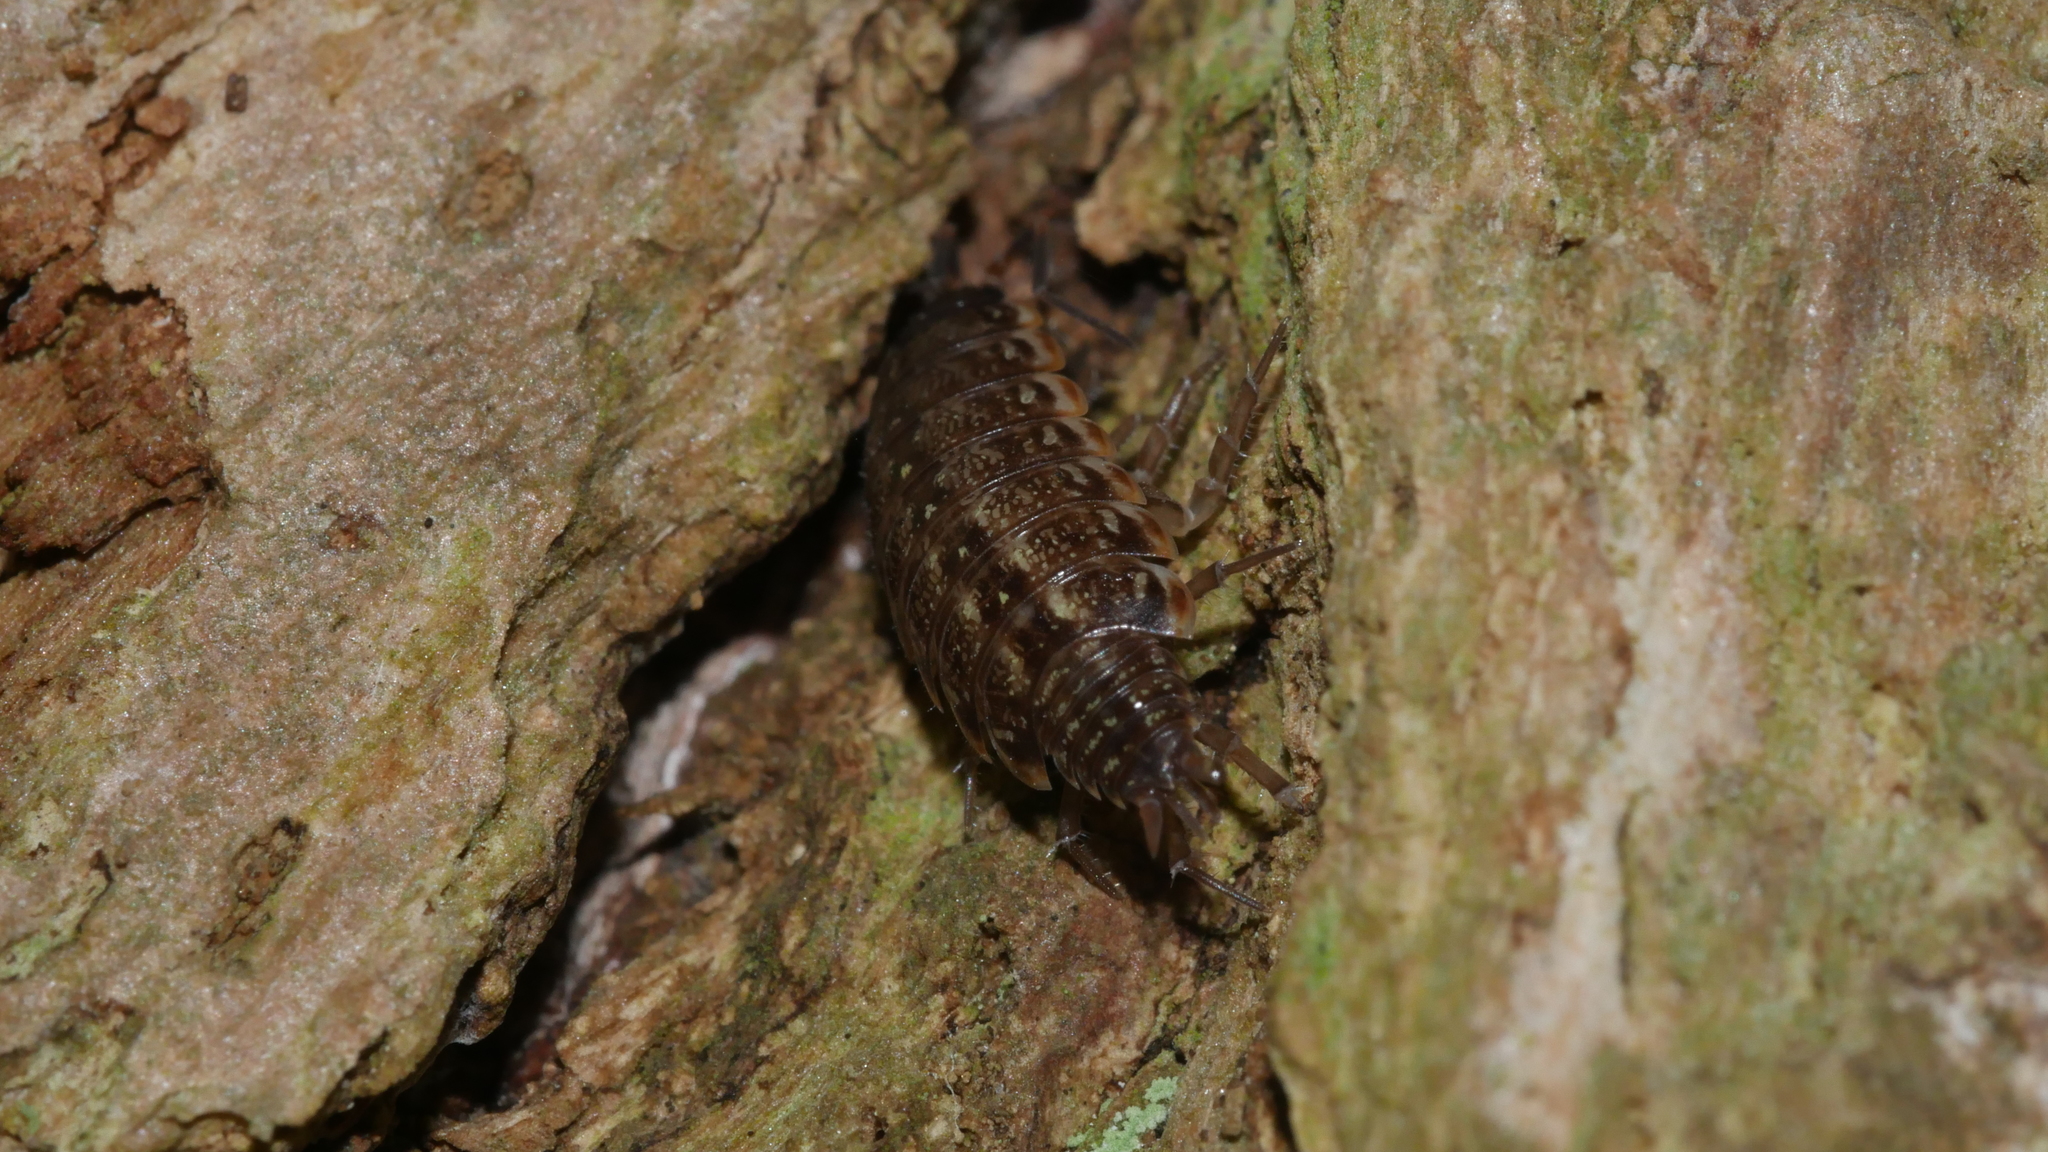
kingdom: Animalia
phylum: Arthropoda
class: Malacostraca
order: Isopoda
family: Philosciidae
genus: Philoscia
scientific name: Philoscia muscorum
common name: Common striped woodlouse
